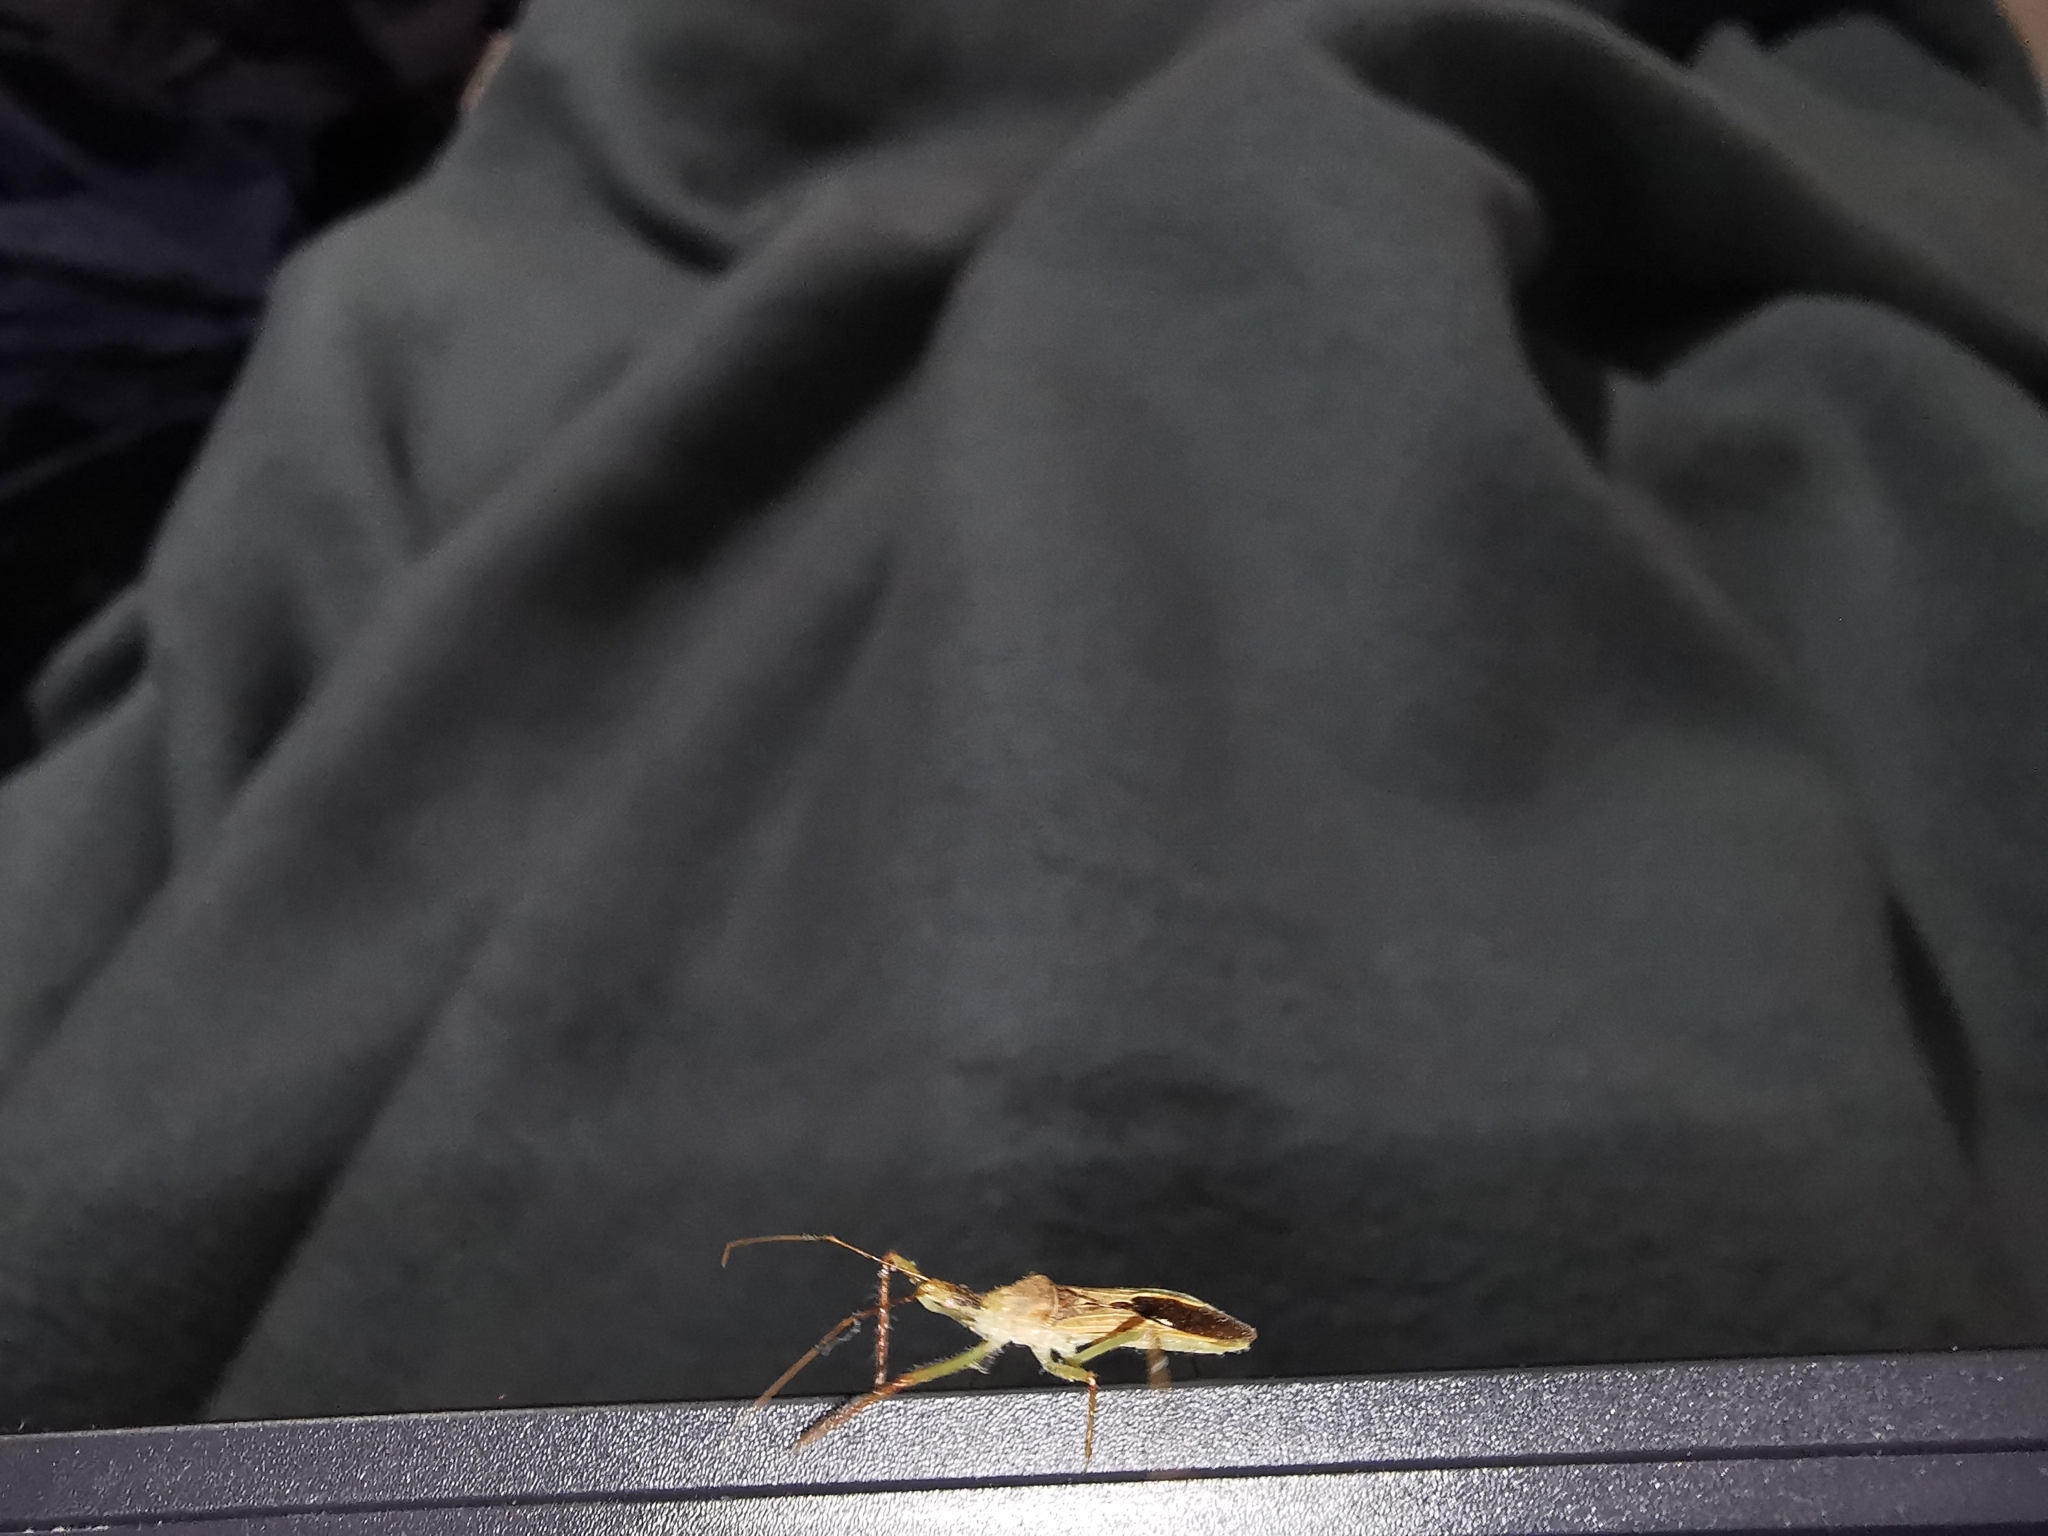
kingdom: Animalia
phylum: Arthropoda
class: Insecta
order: Hemiptera
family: Reduviidae
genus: Zelus
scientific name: Zelus renardii
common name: Assassin bug
